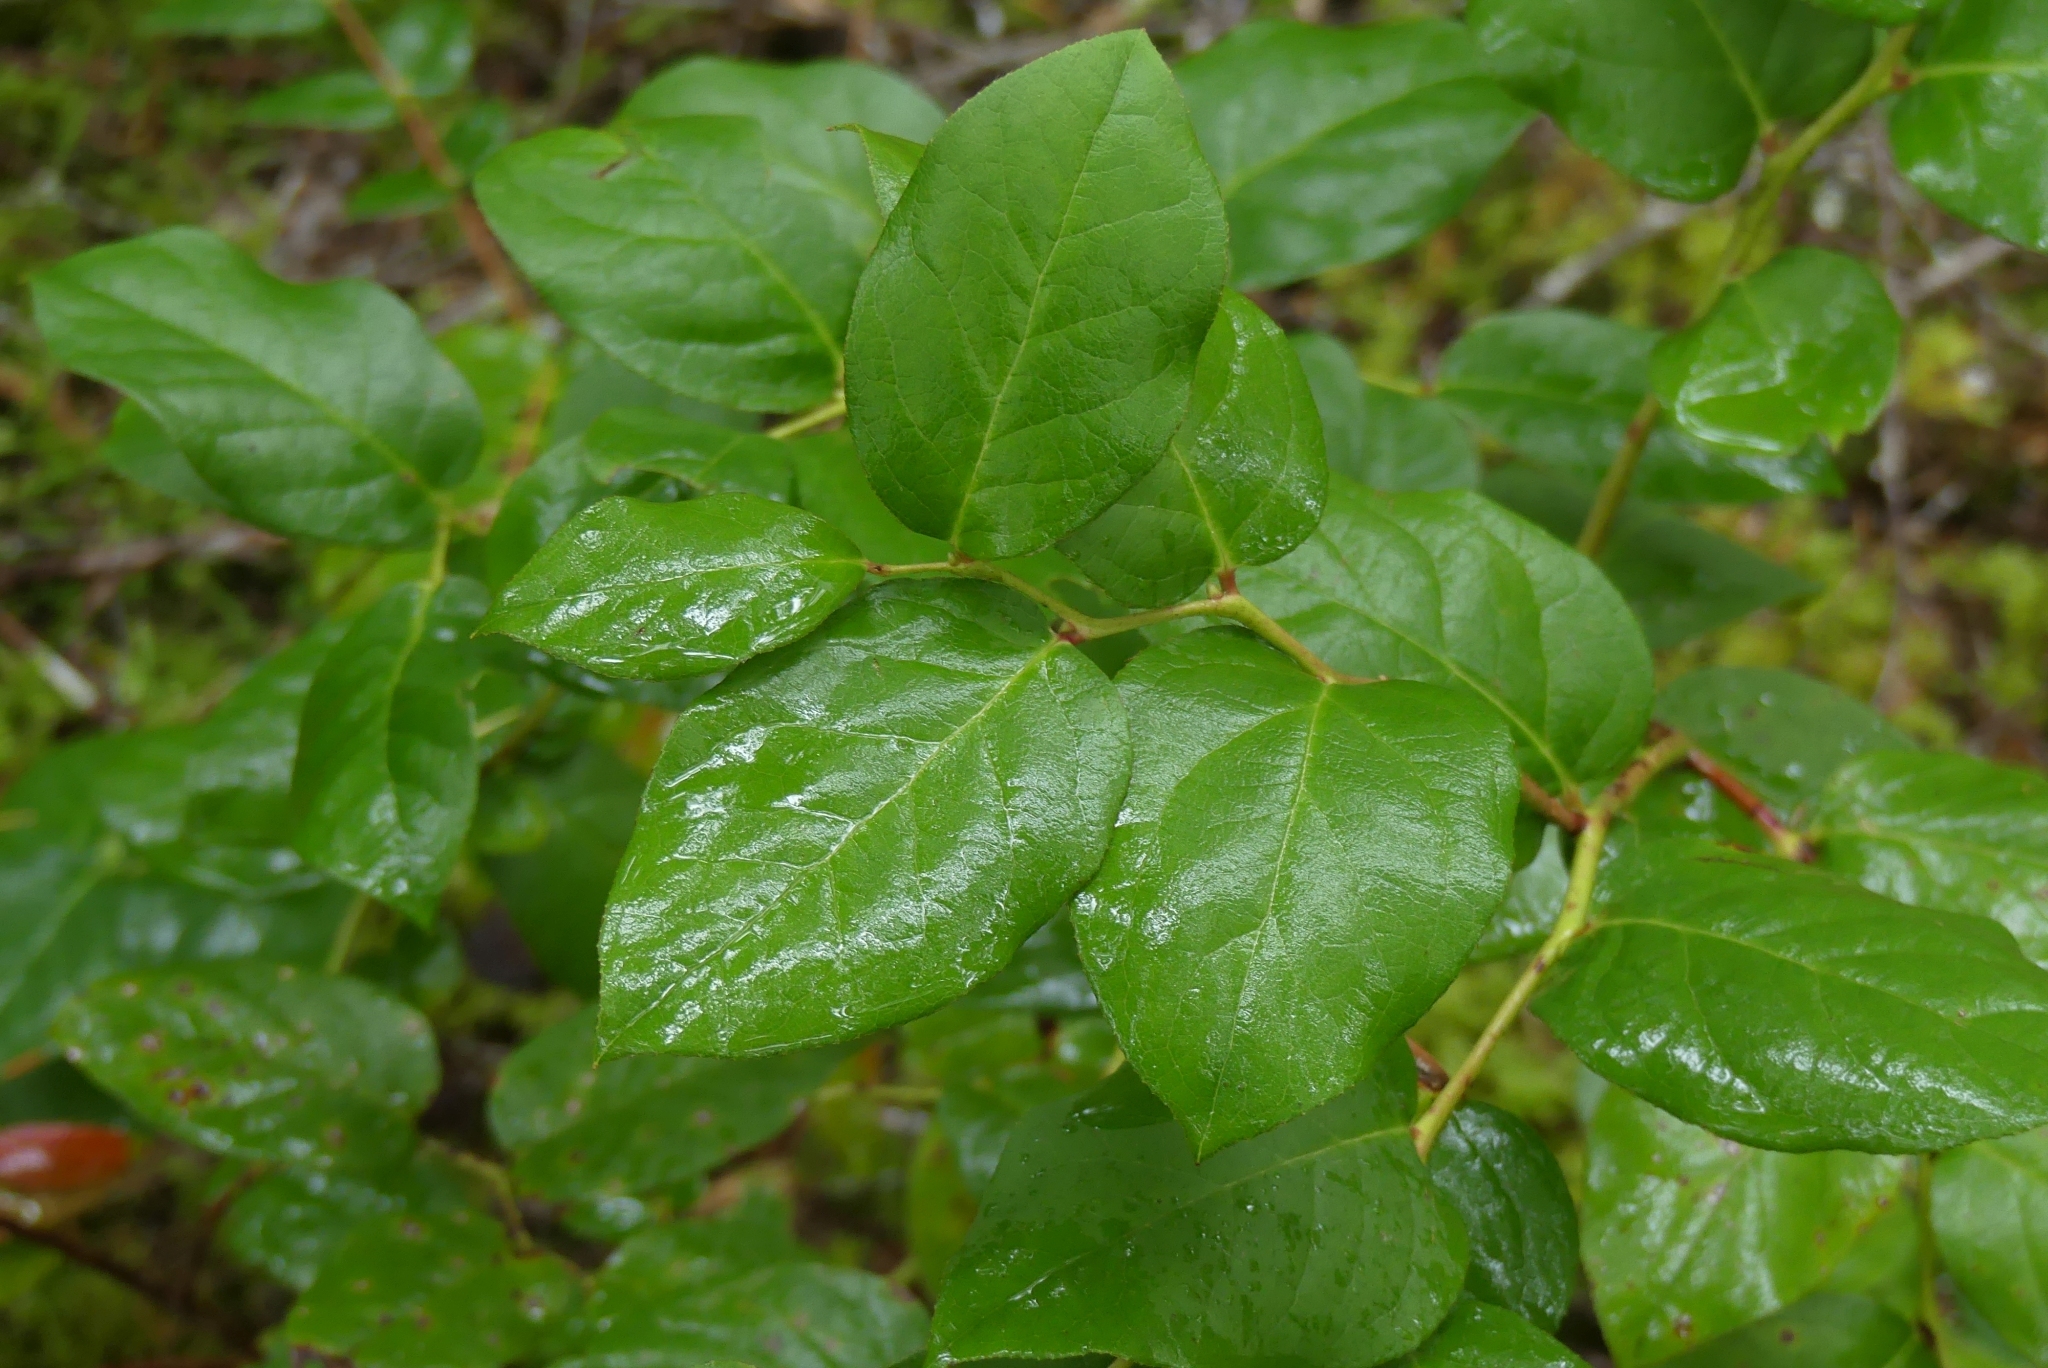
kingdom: Plantae
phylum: Tracheophyta
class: Magnoliopsida
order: Ericales
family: Ericaceae
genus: Gaultheria
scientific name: Gaultheria shallon
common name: Shallon
